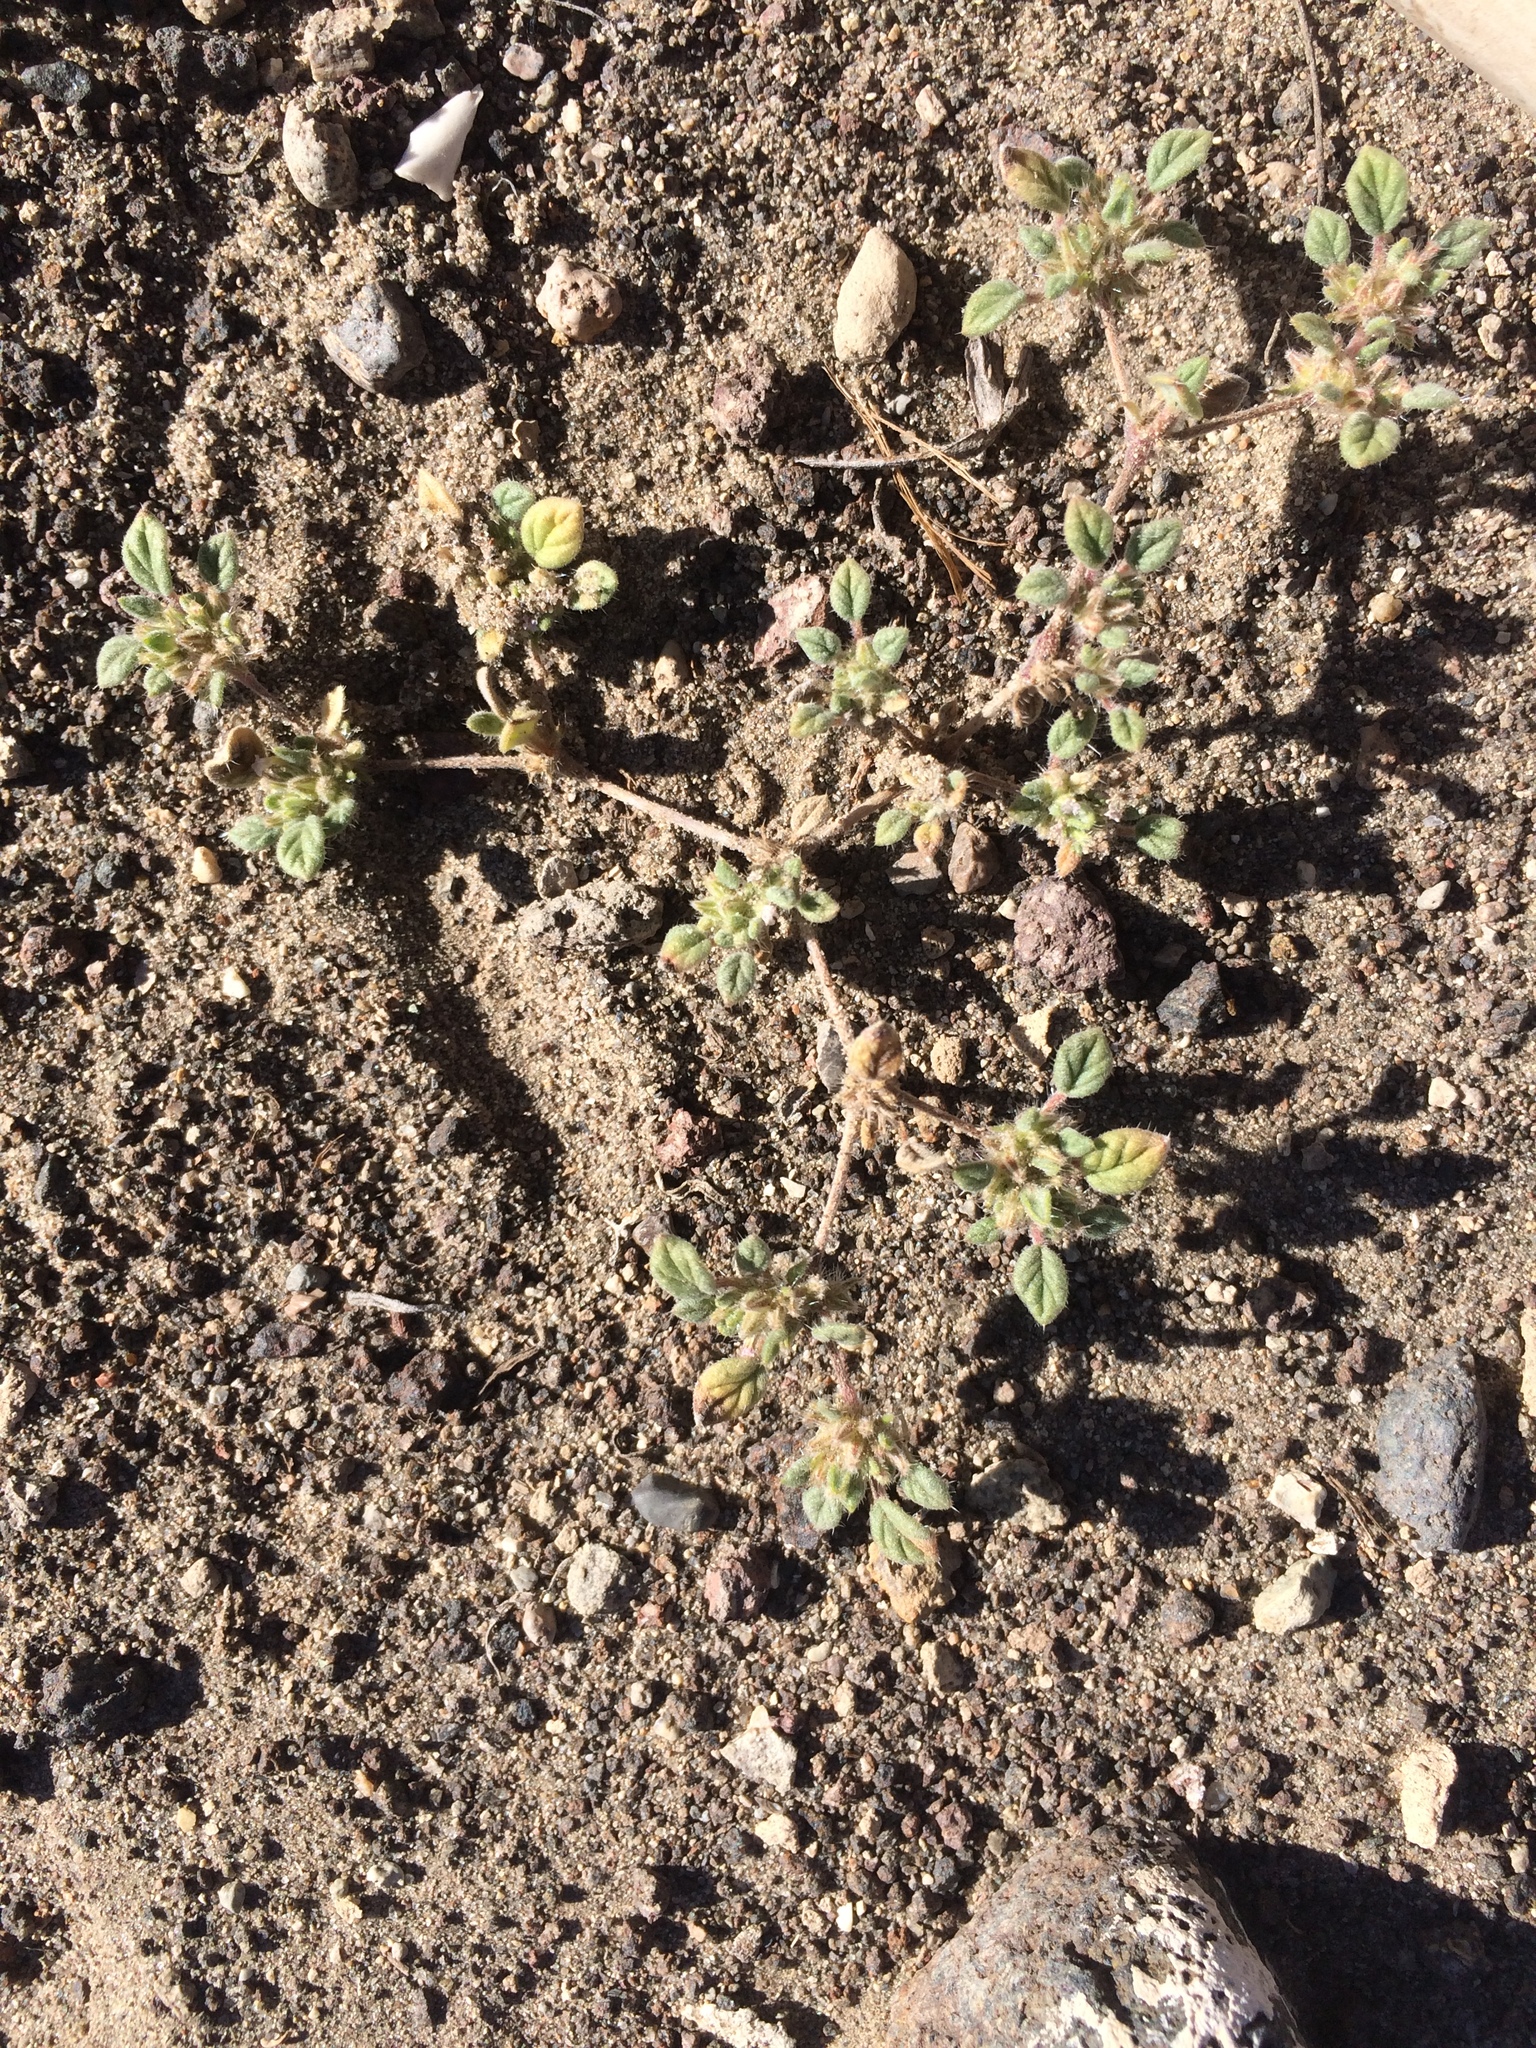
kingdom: Plantae
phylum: Tracheophyta
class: Magnoliopsida
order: Boraginales
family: Ehretiaceae
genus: Tiquilia
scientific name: Tiquilia nuttallii
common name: Rosette tiquilia
